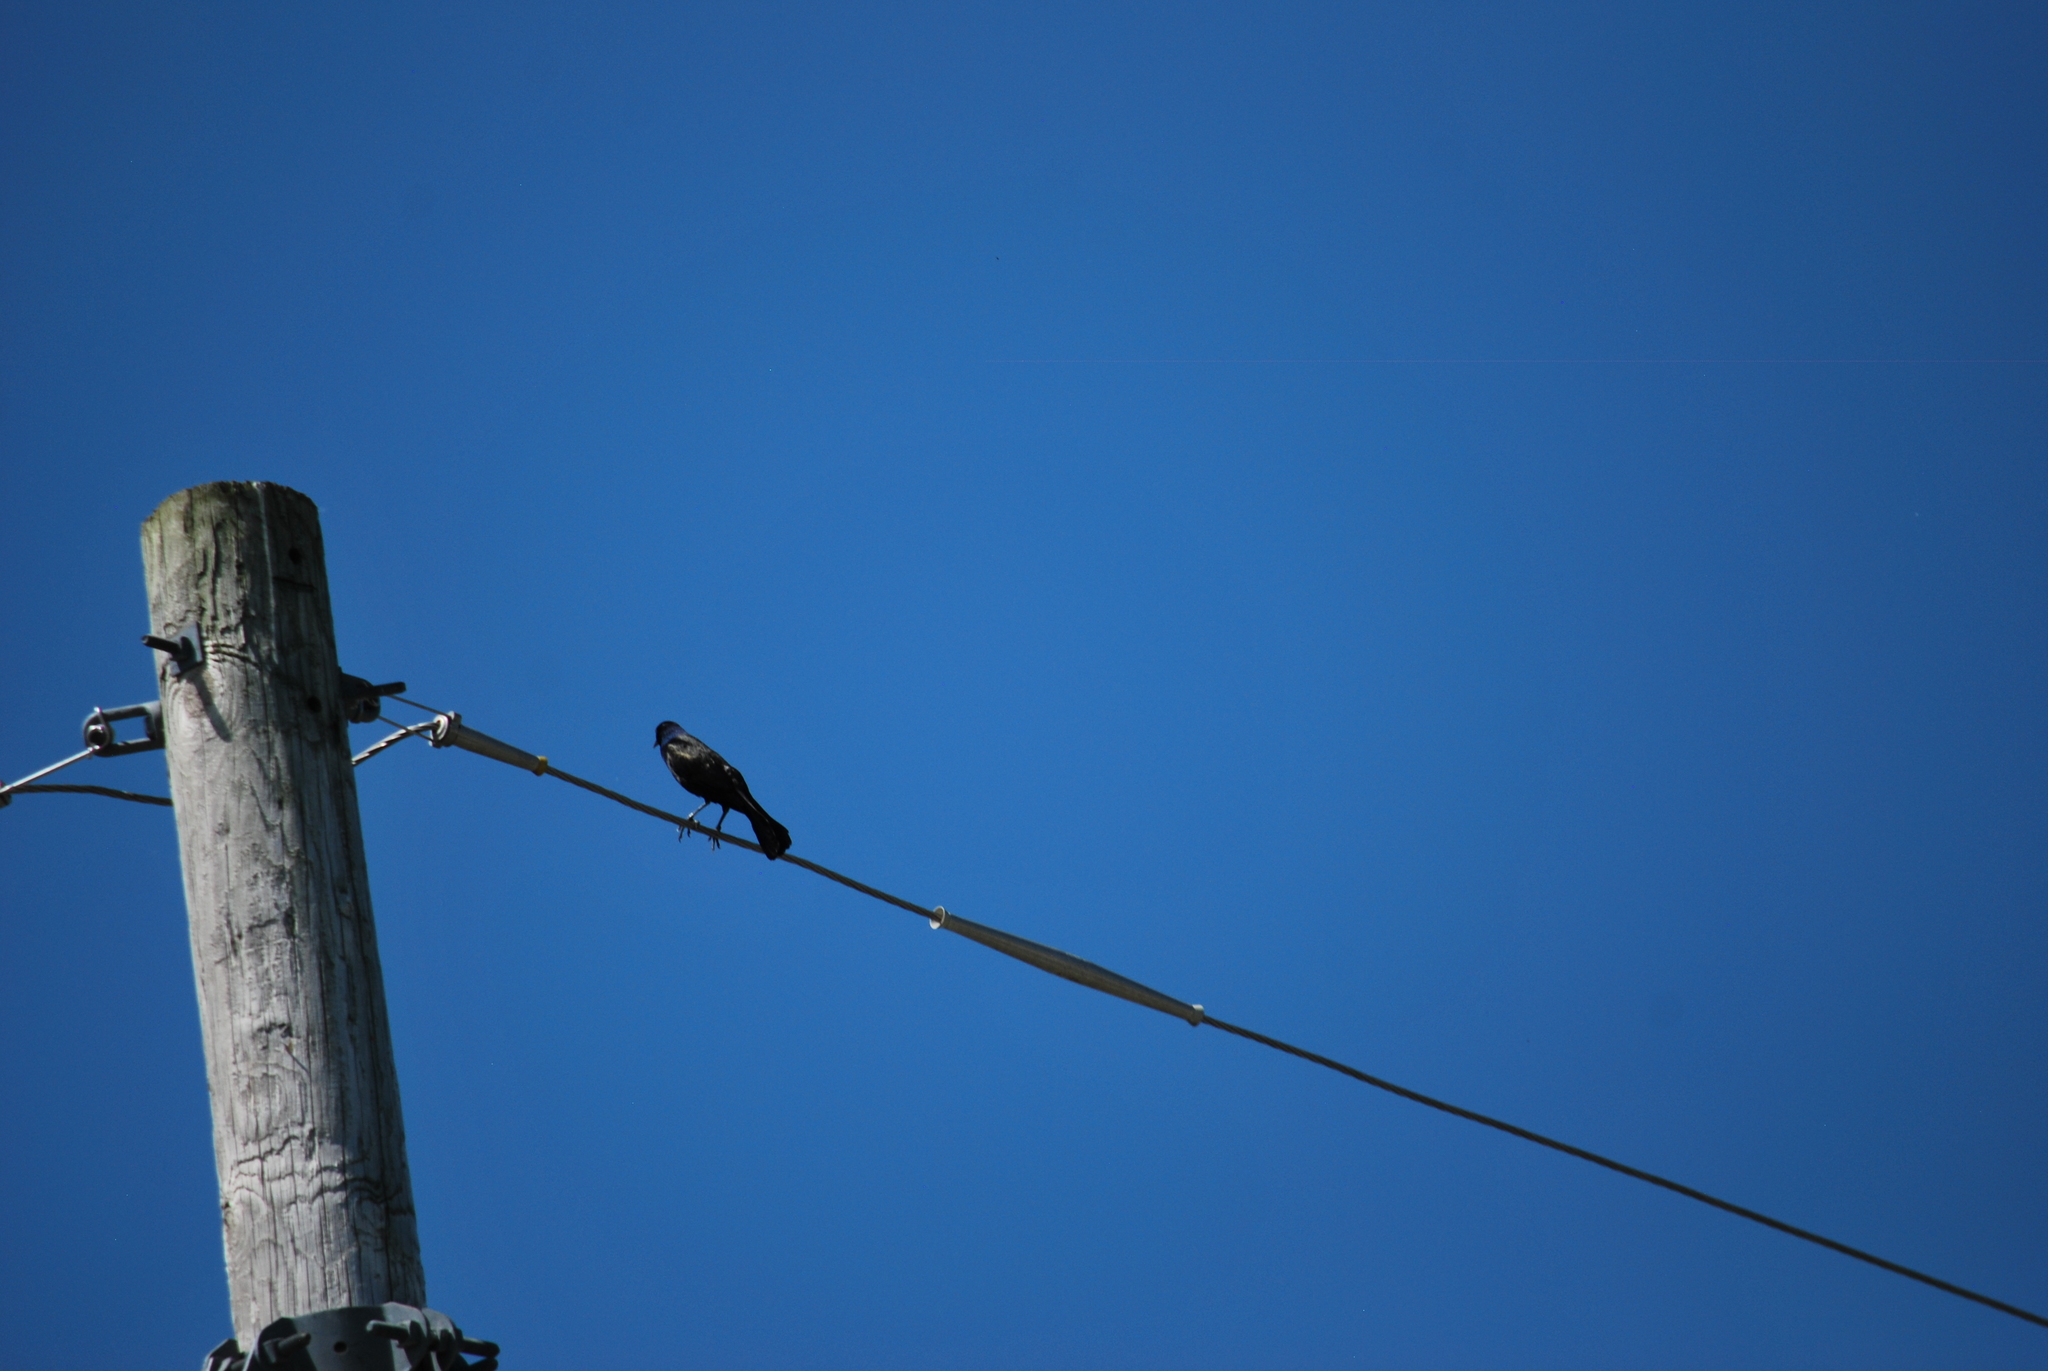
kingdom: Animalia
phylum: Chordata
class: Aves
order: Passeriformes
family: Icteridae
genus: Quiscalus
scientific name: Quiscalus quiscula
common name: Common grackle
